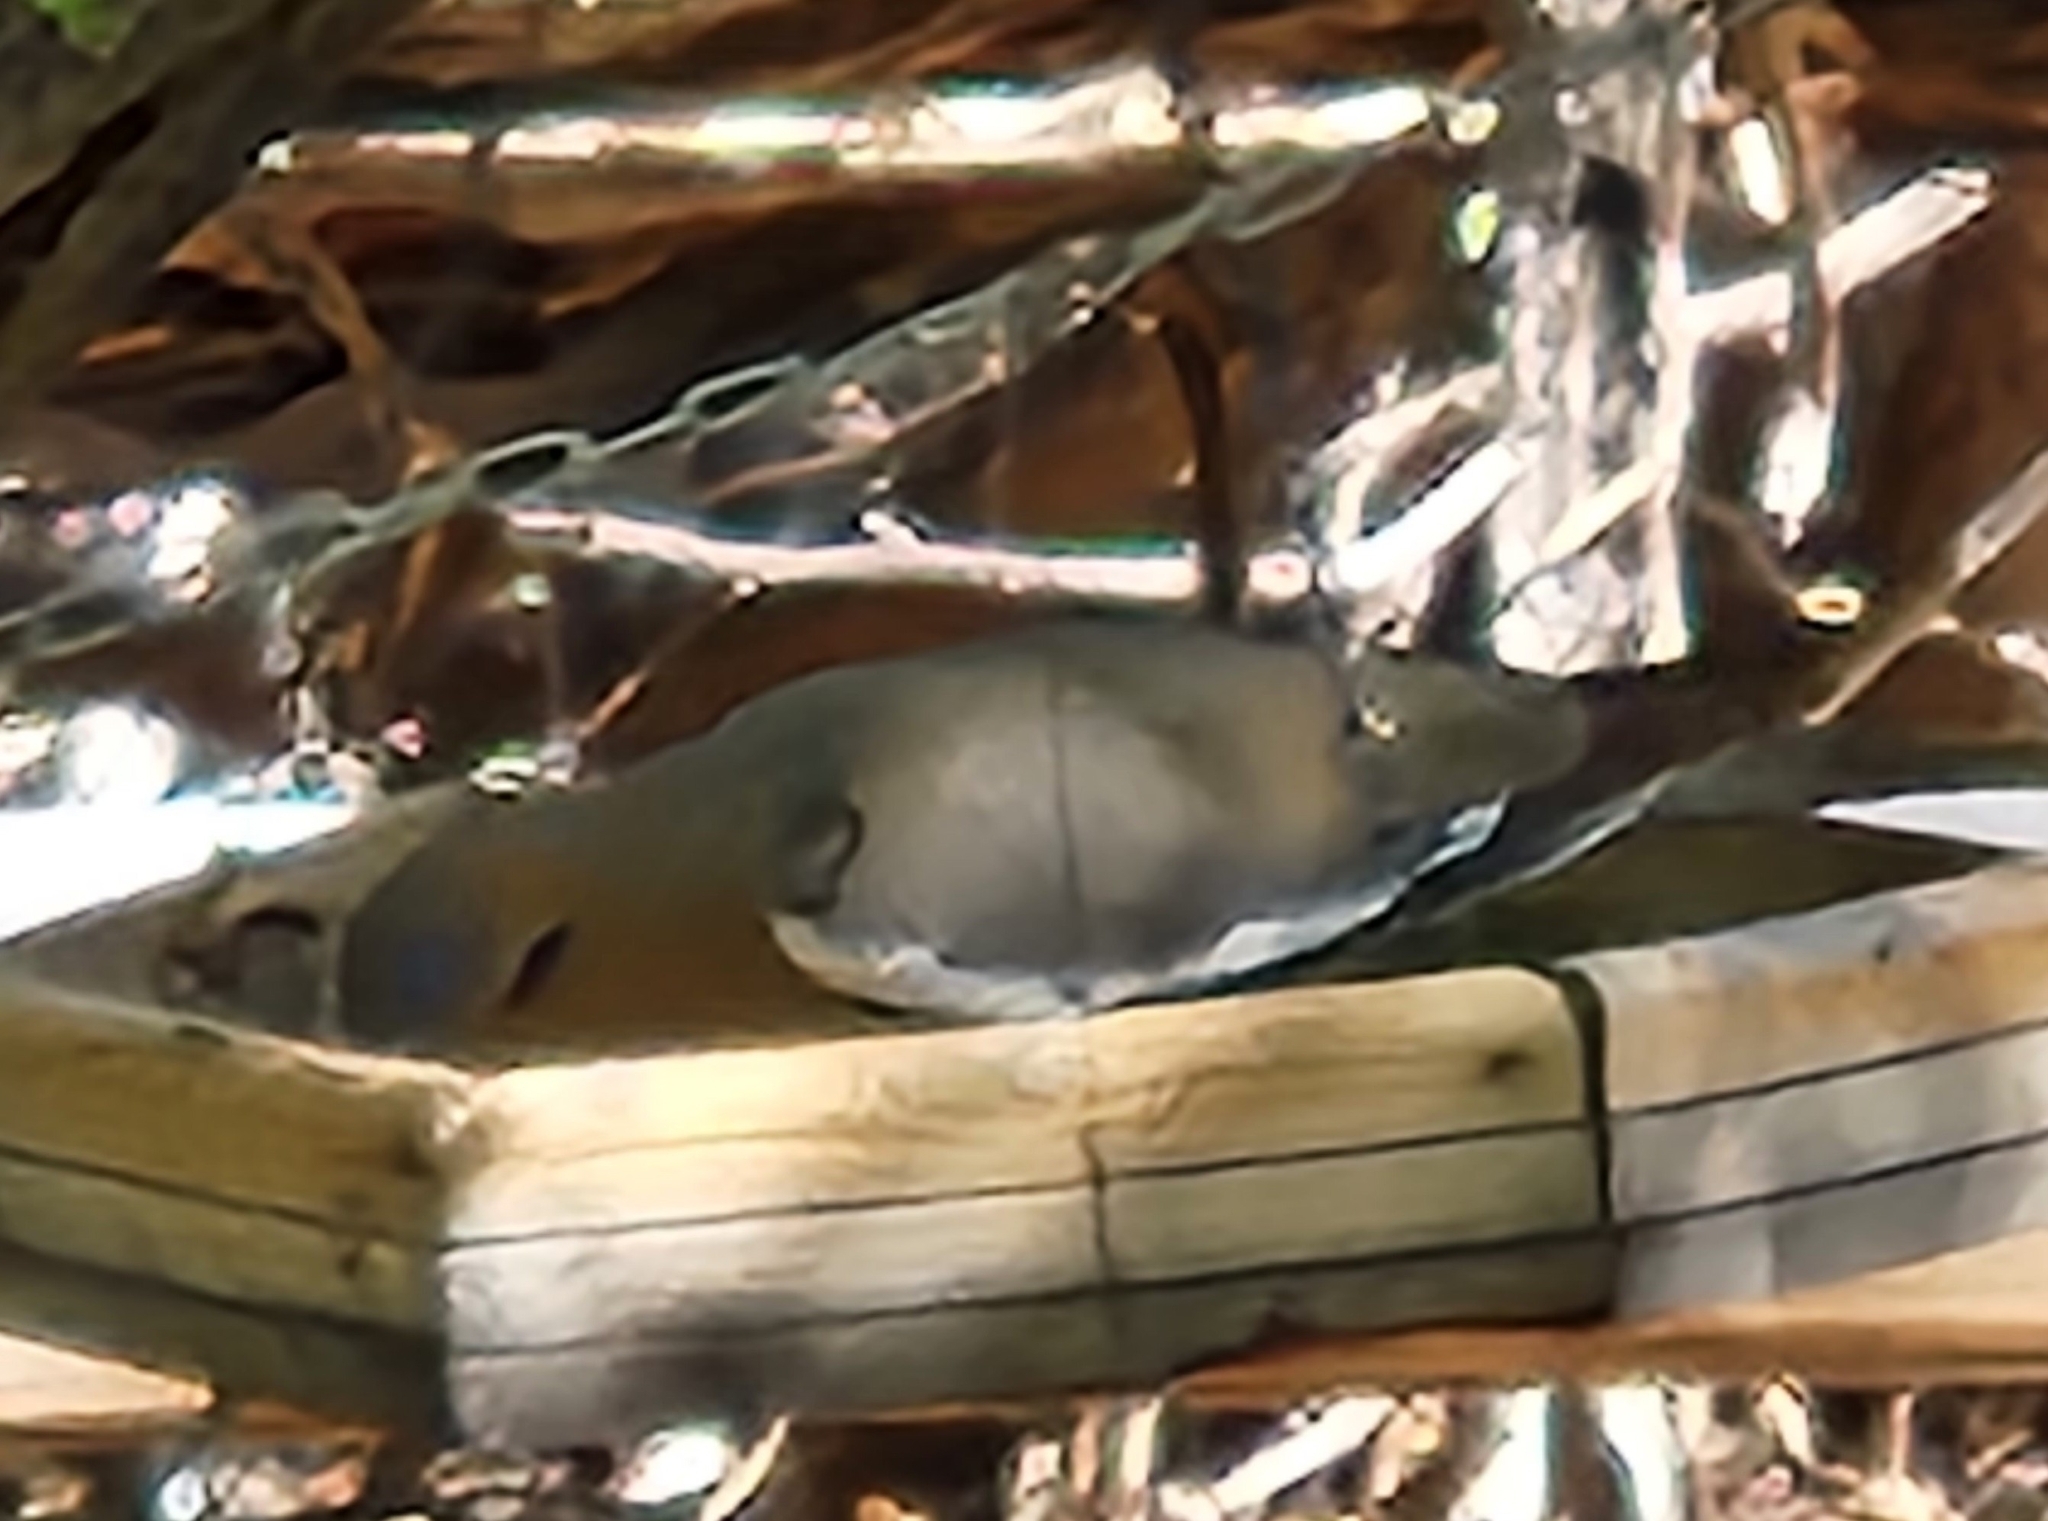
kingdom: Animalia
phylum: Chordata
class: Aves
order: Columbiformes
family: Columbidae
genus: Zenaida
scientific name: Zenaida asiatica
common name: White-winged dove
